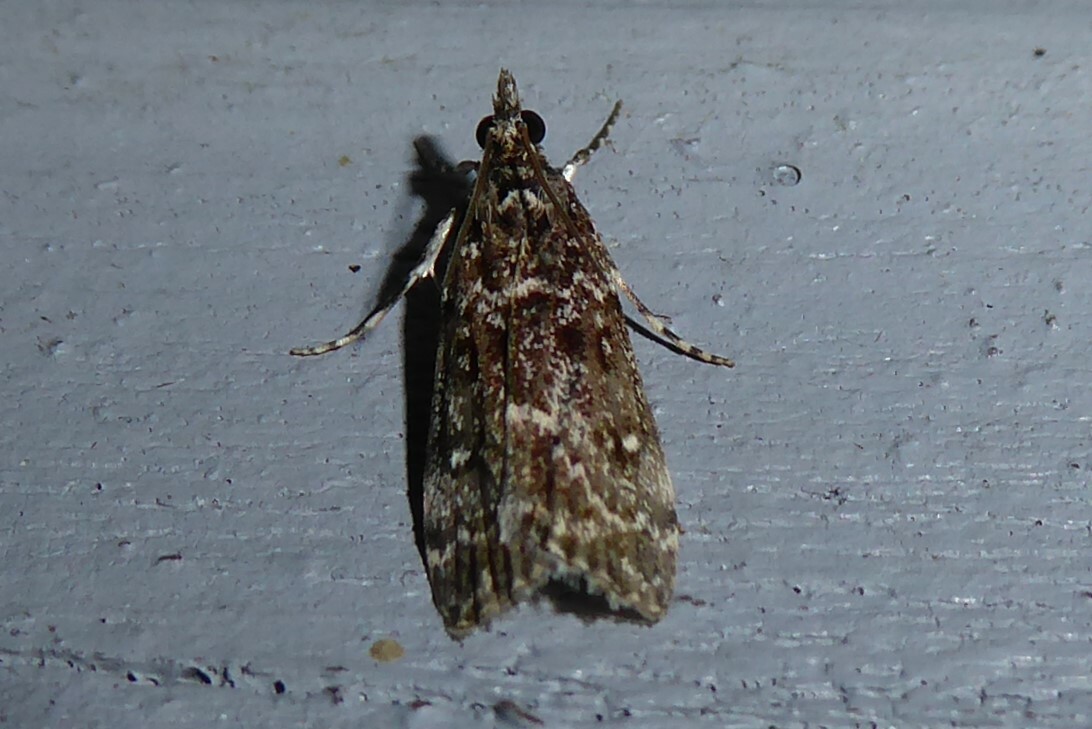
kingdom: Animalia
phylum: Arthropoda
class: Insecta
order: Lepidoptera
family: Crambidae
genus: Eudonia
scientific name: Eudonia philerga
